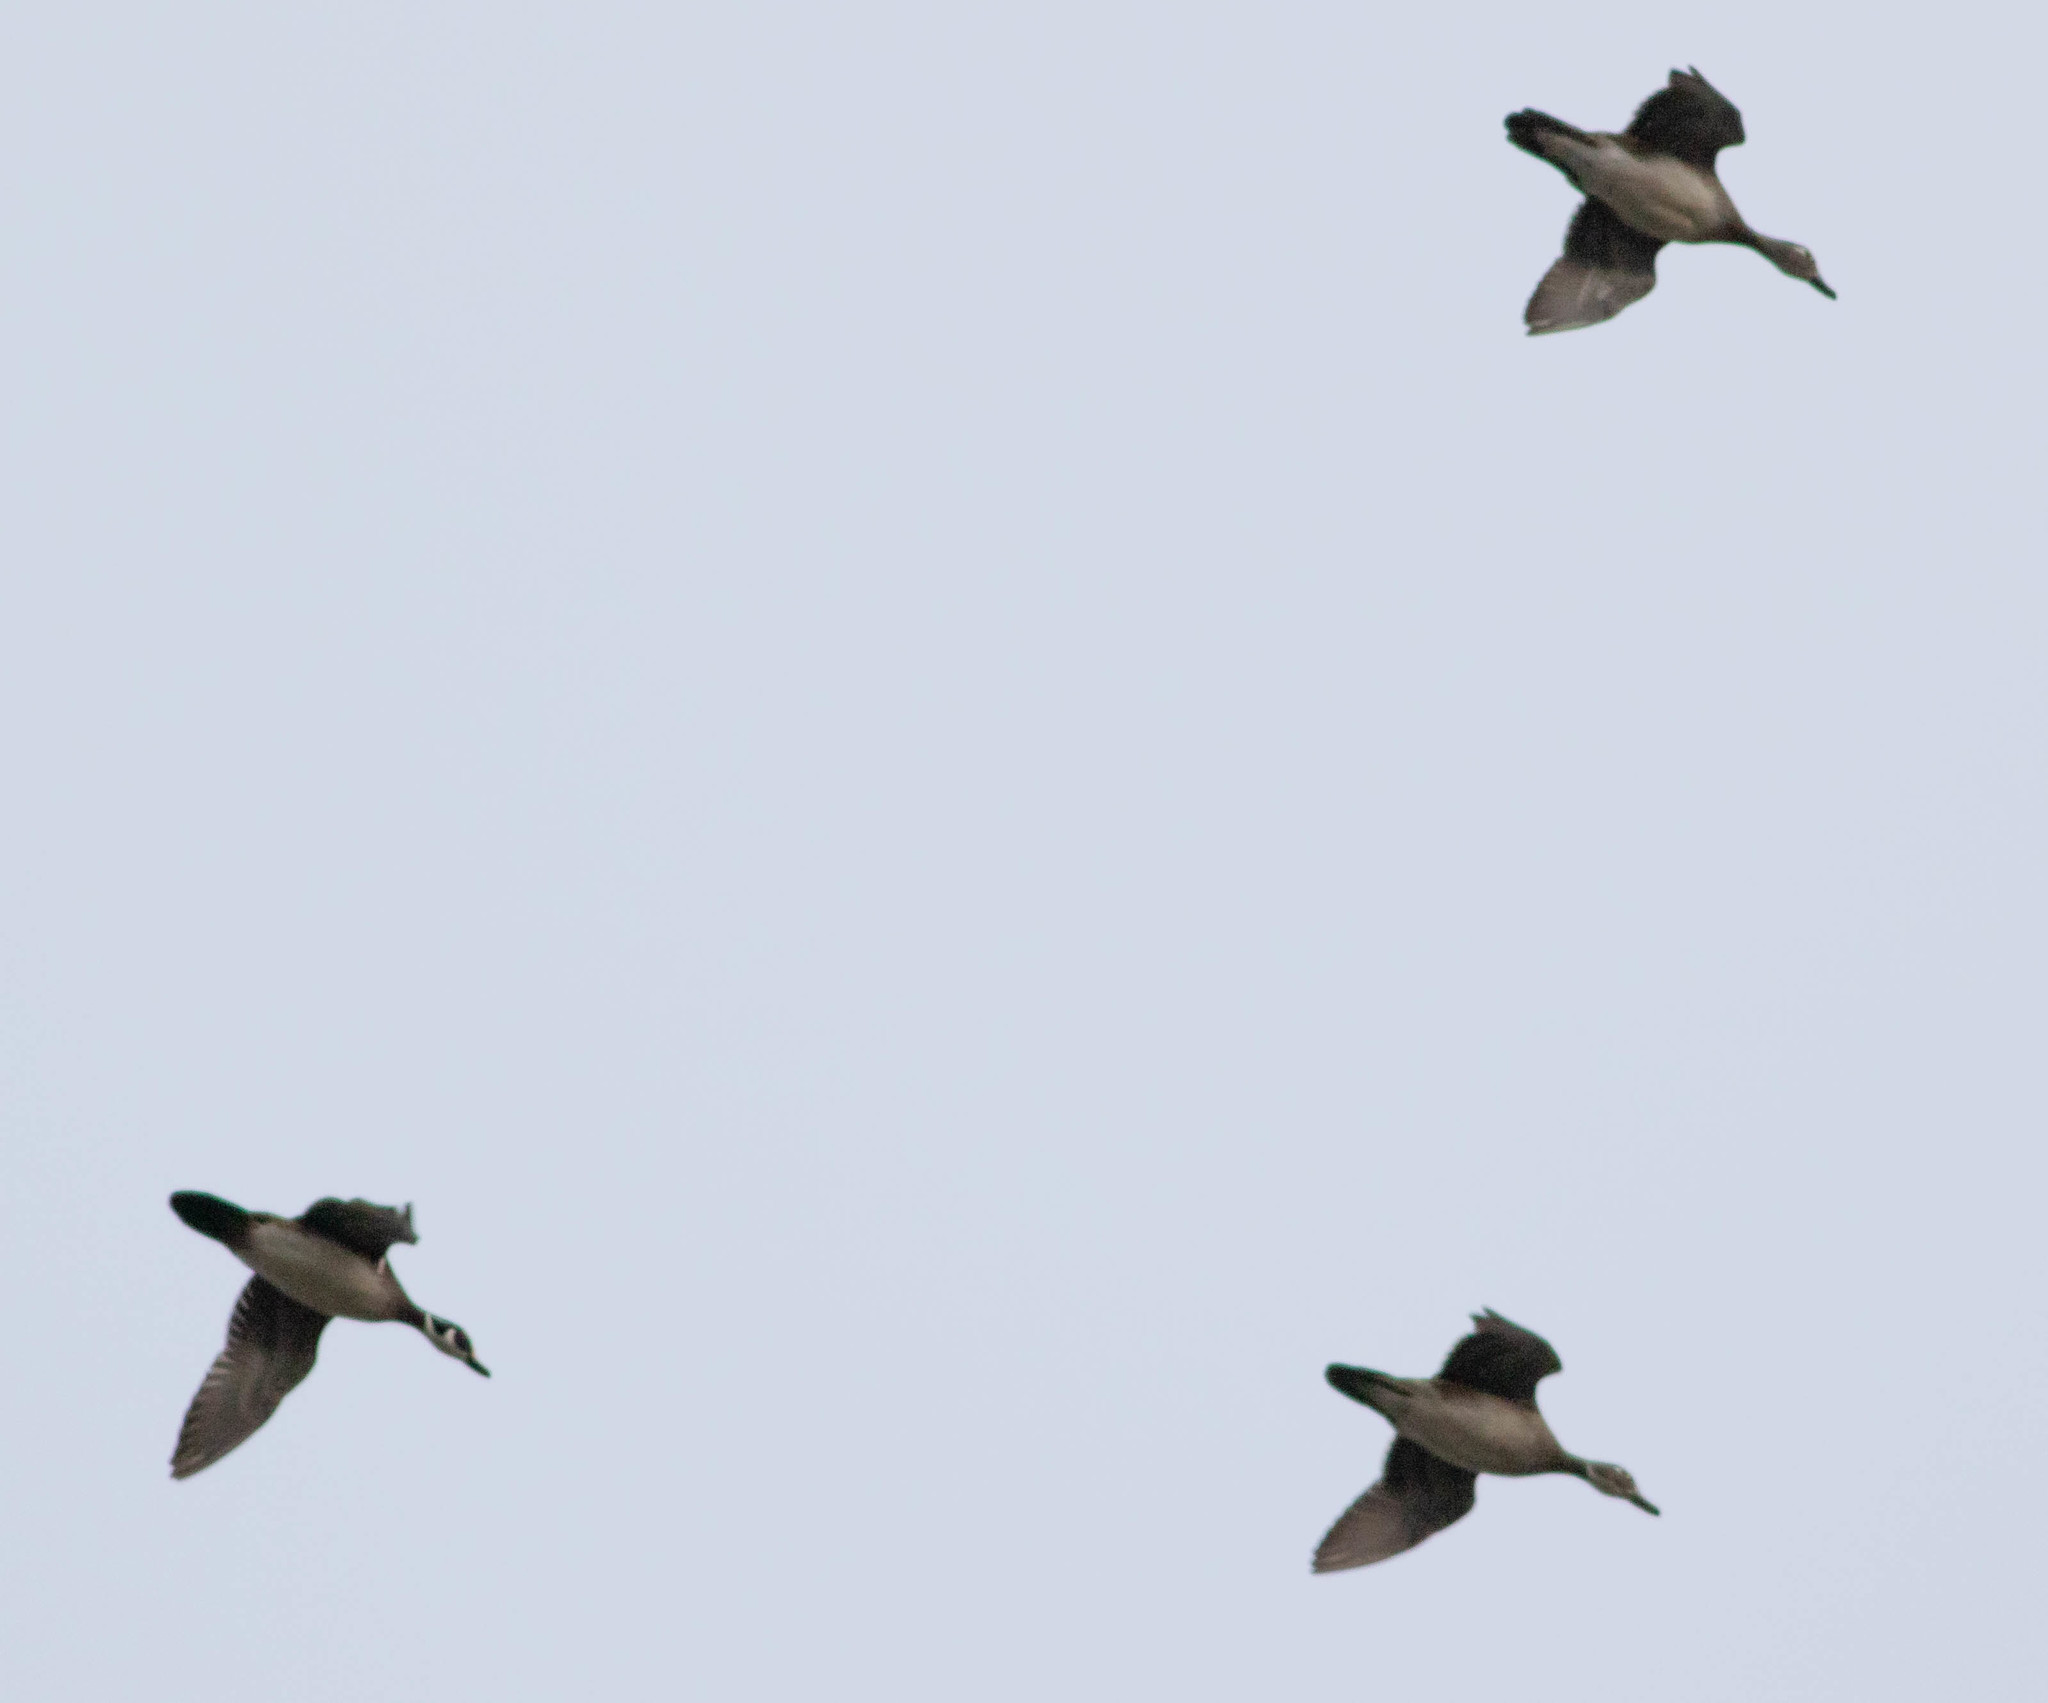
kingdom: Animalia
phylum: Chordata
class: Aves
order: Anseriformes
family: Anatidae
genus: Aix
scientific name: Aix sponsa
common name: Wood duck
